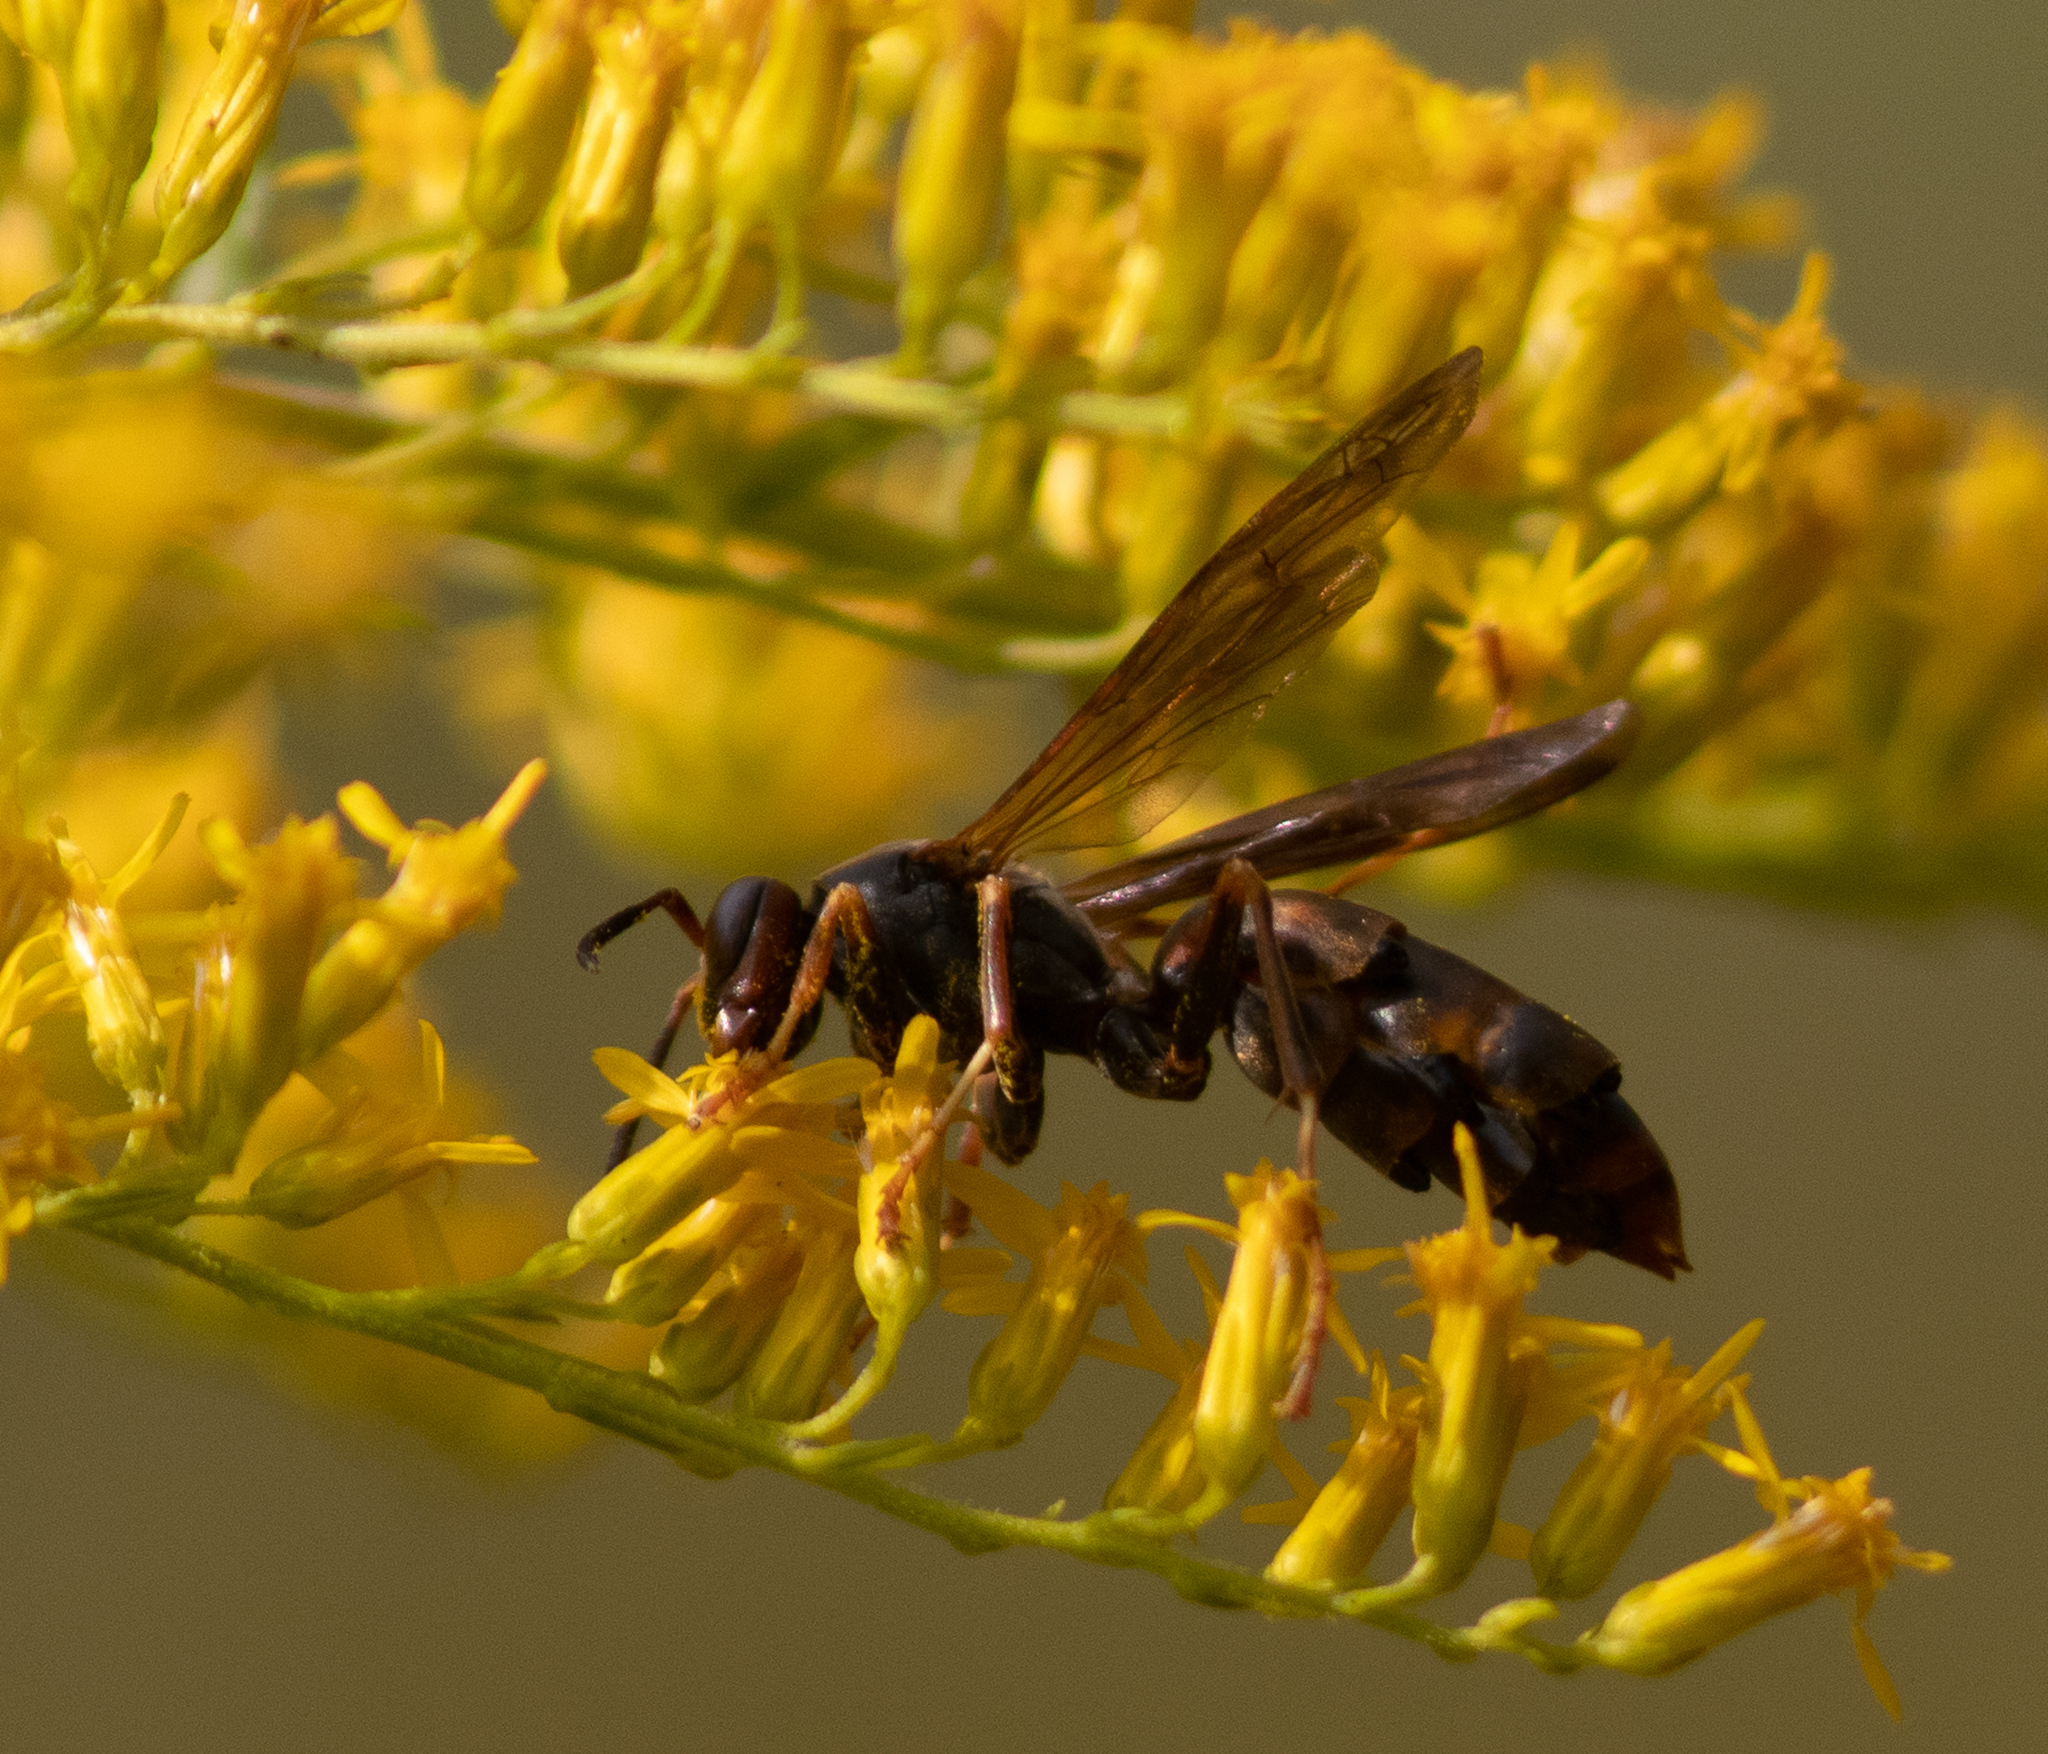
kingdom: Animalia
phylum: Arthropoda
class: Insecta
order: Hymenoptera
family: Vespidae
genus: Fuscopolistes
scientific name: Fuscopolistes
